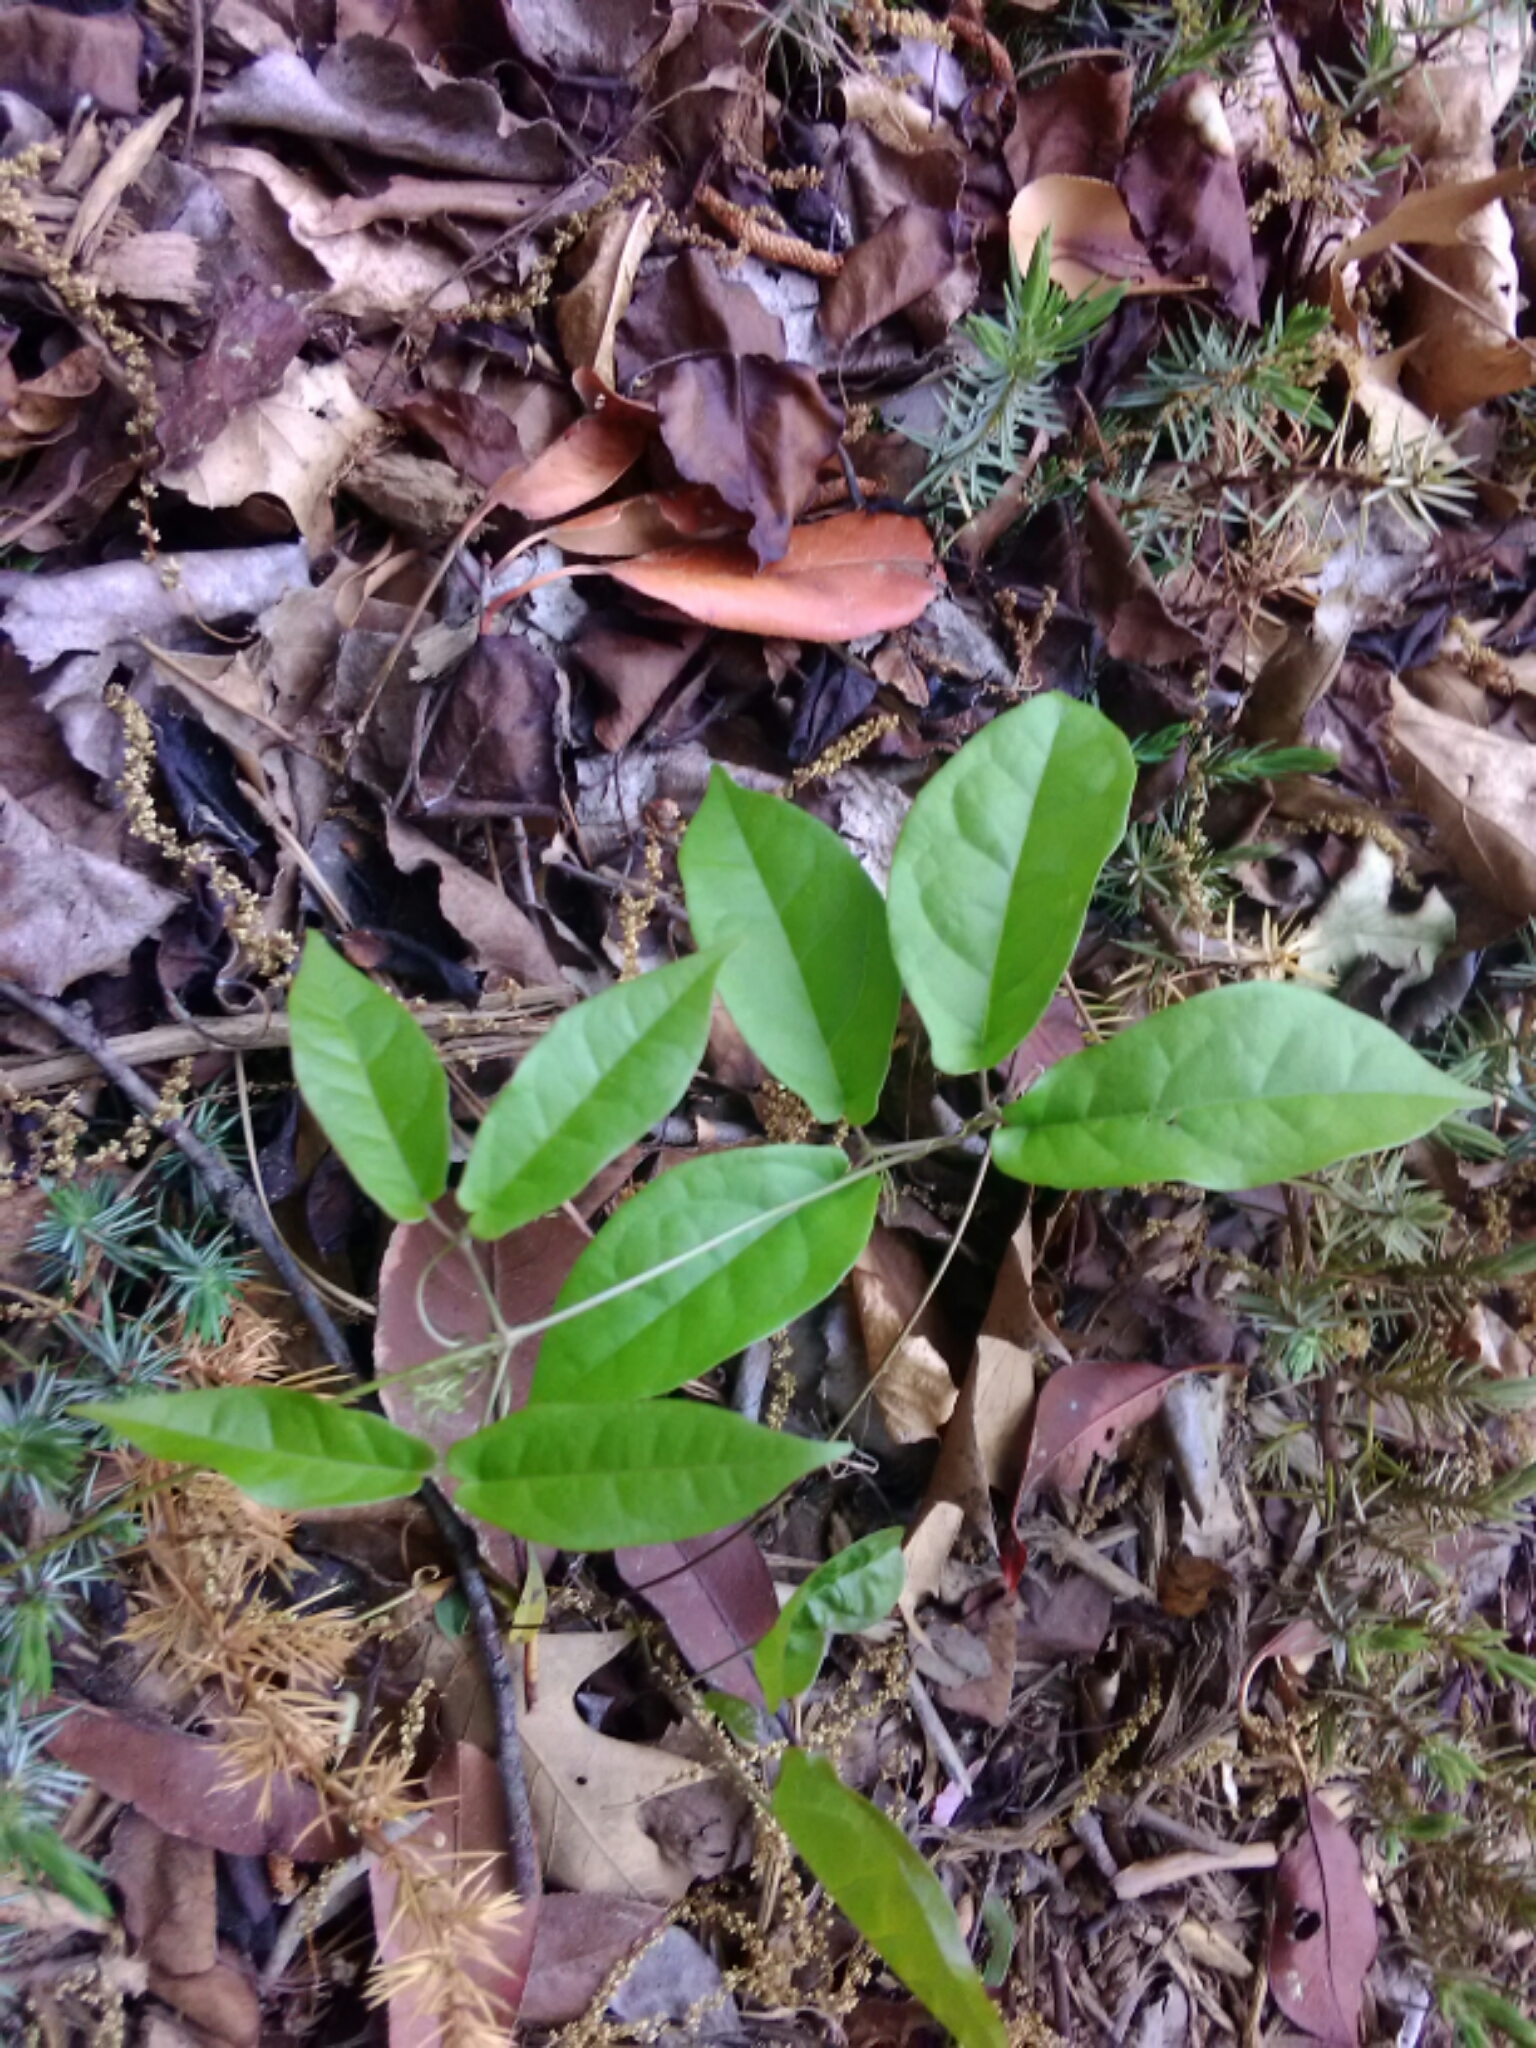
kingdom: Plantae
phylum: Tracheophyta
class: Magnoliopsida
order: Lamiales
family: Bignoniaceae
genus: Bignonia
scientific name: Bignonia capreolata
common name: Crossvine
